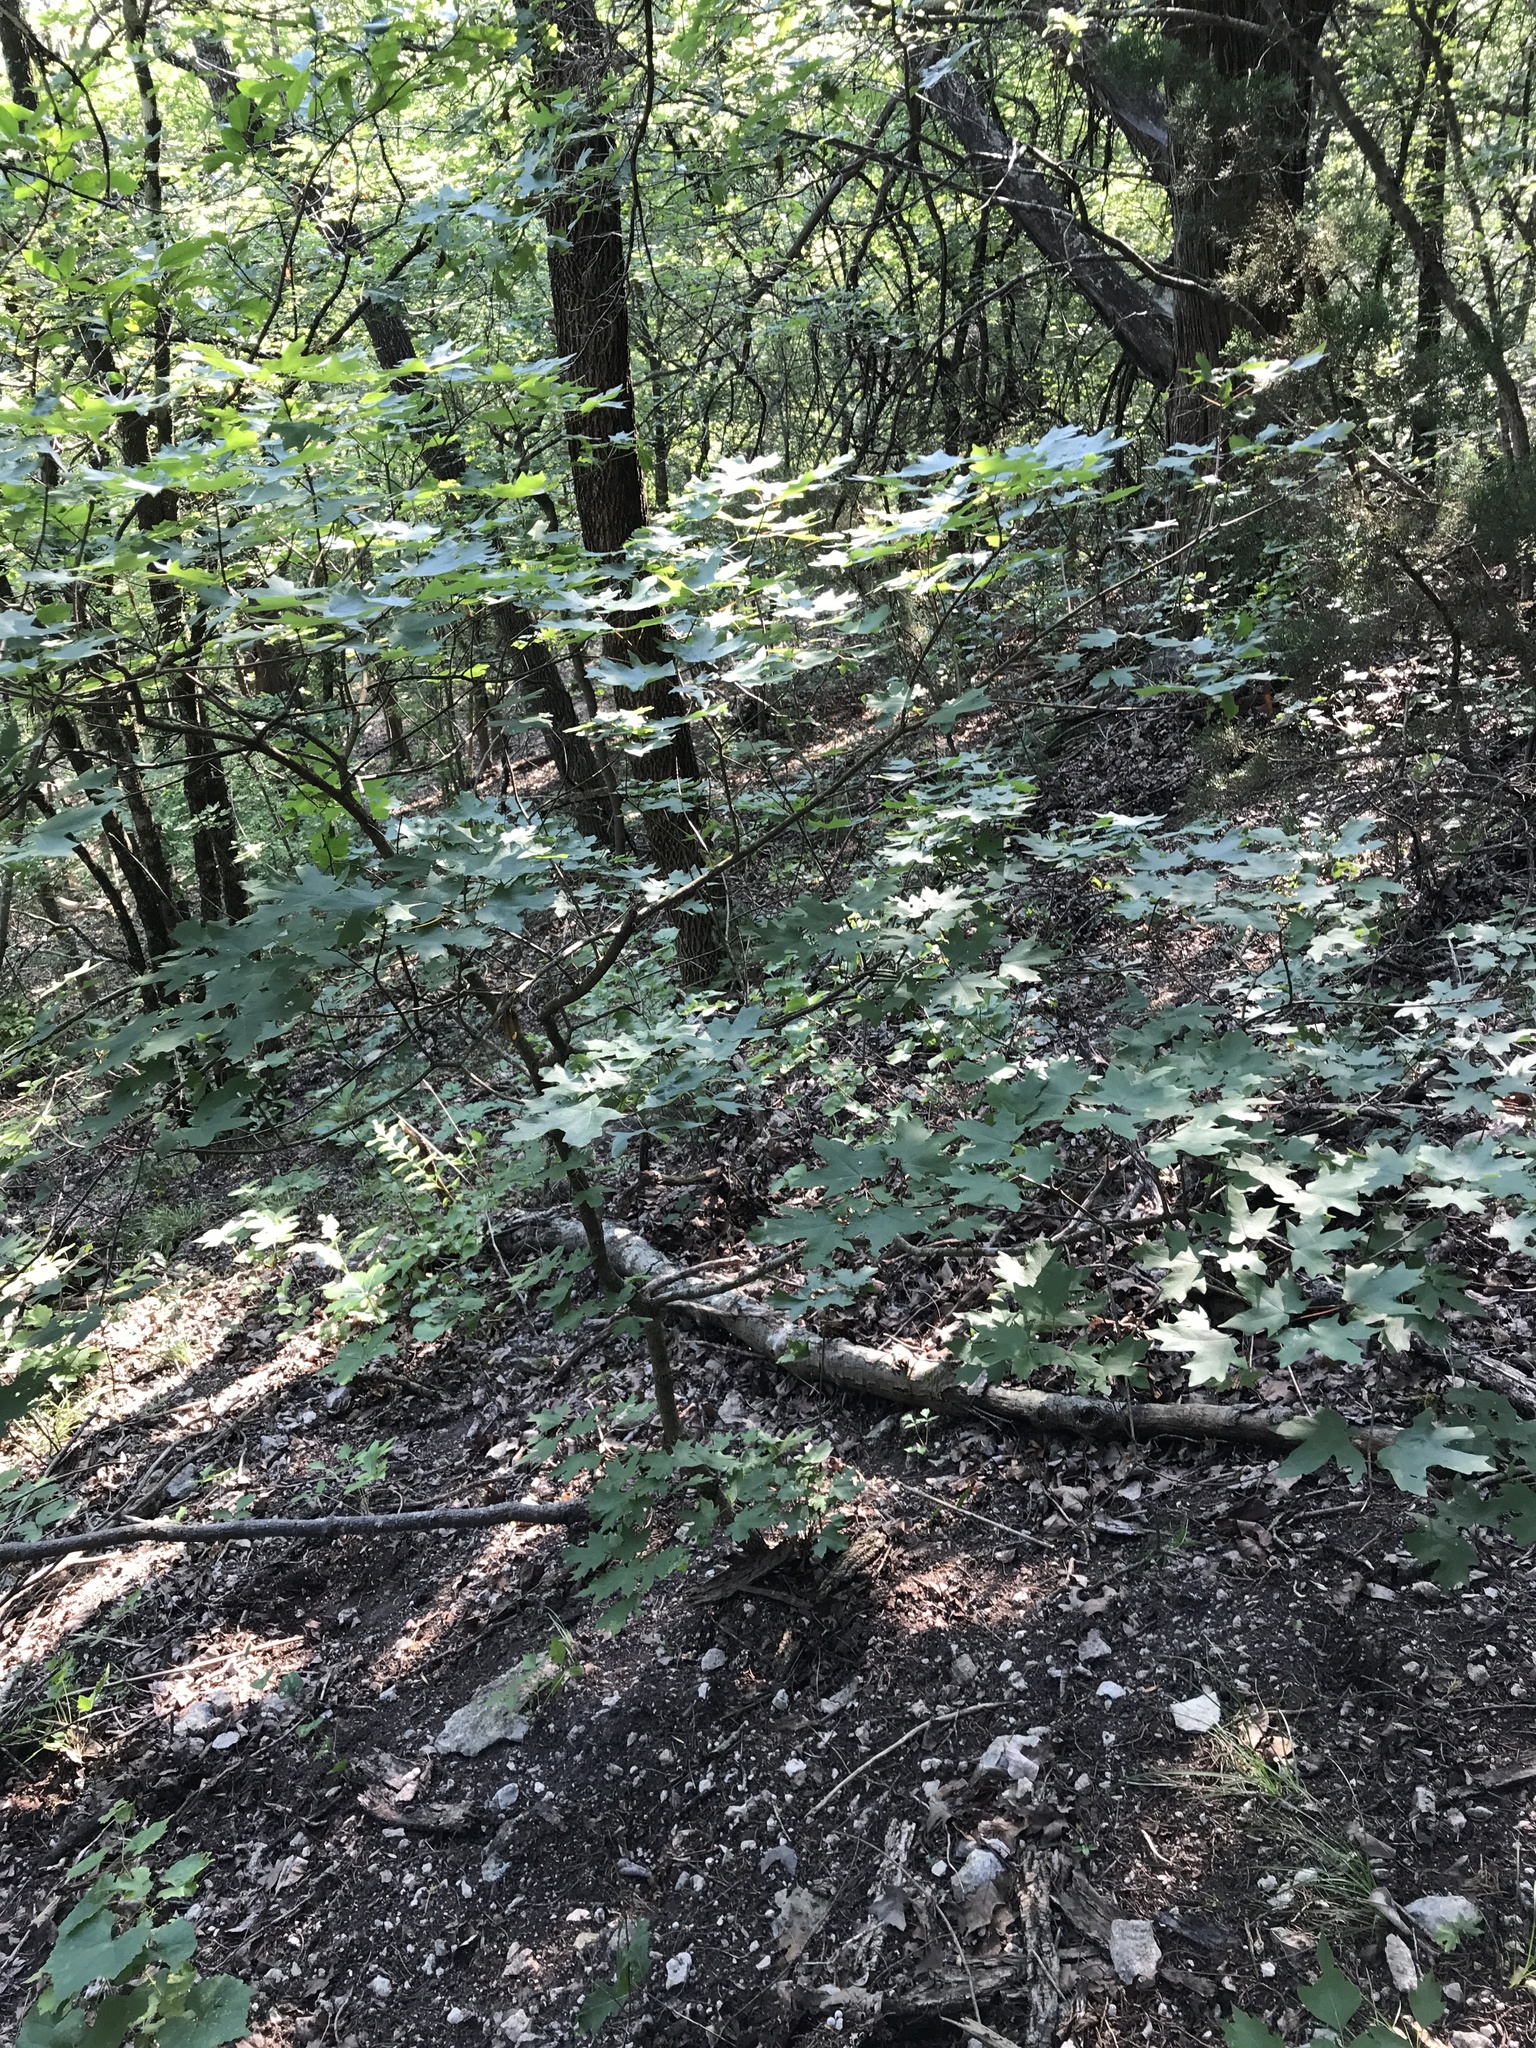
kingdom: Plantae
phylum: Tracheophyta
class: Magnoliopsida
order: Sapindales
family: Sapindaceae
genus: Acer
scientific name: Acer grandidentatum
